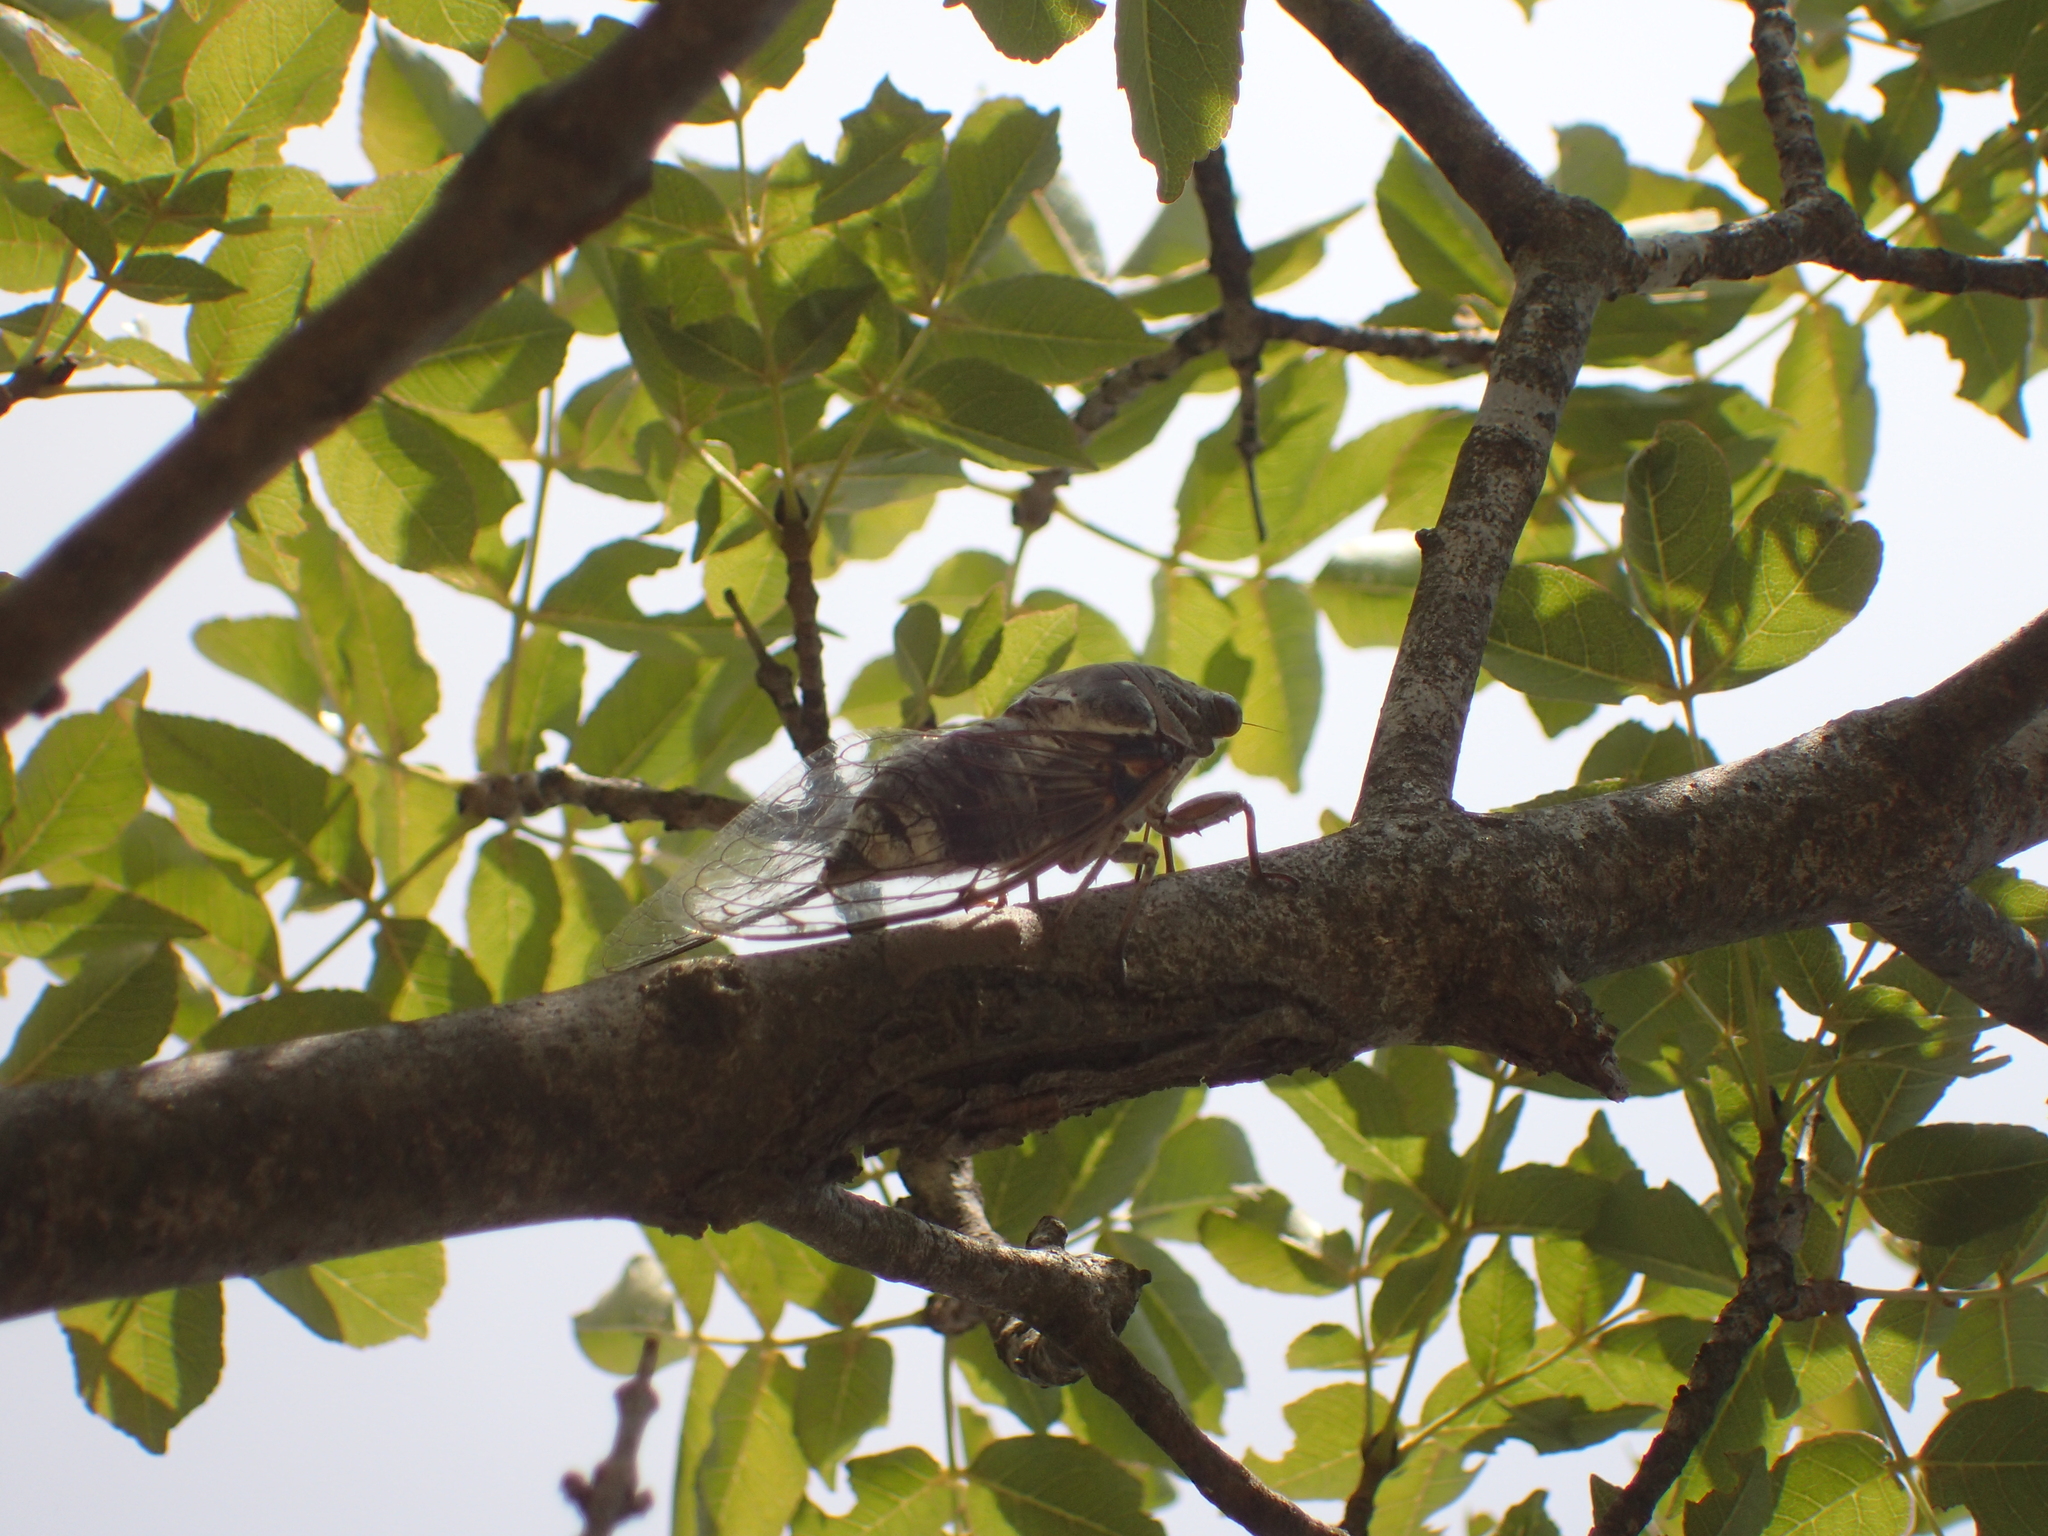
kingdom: Animalia
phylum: Arthropoda
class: Insecta
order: Hemiptera
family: Cicadidae
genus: Lyristes
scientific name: Lyristes plebejus
